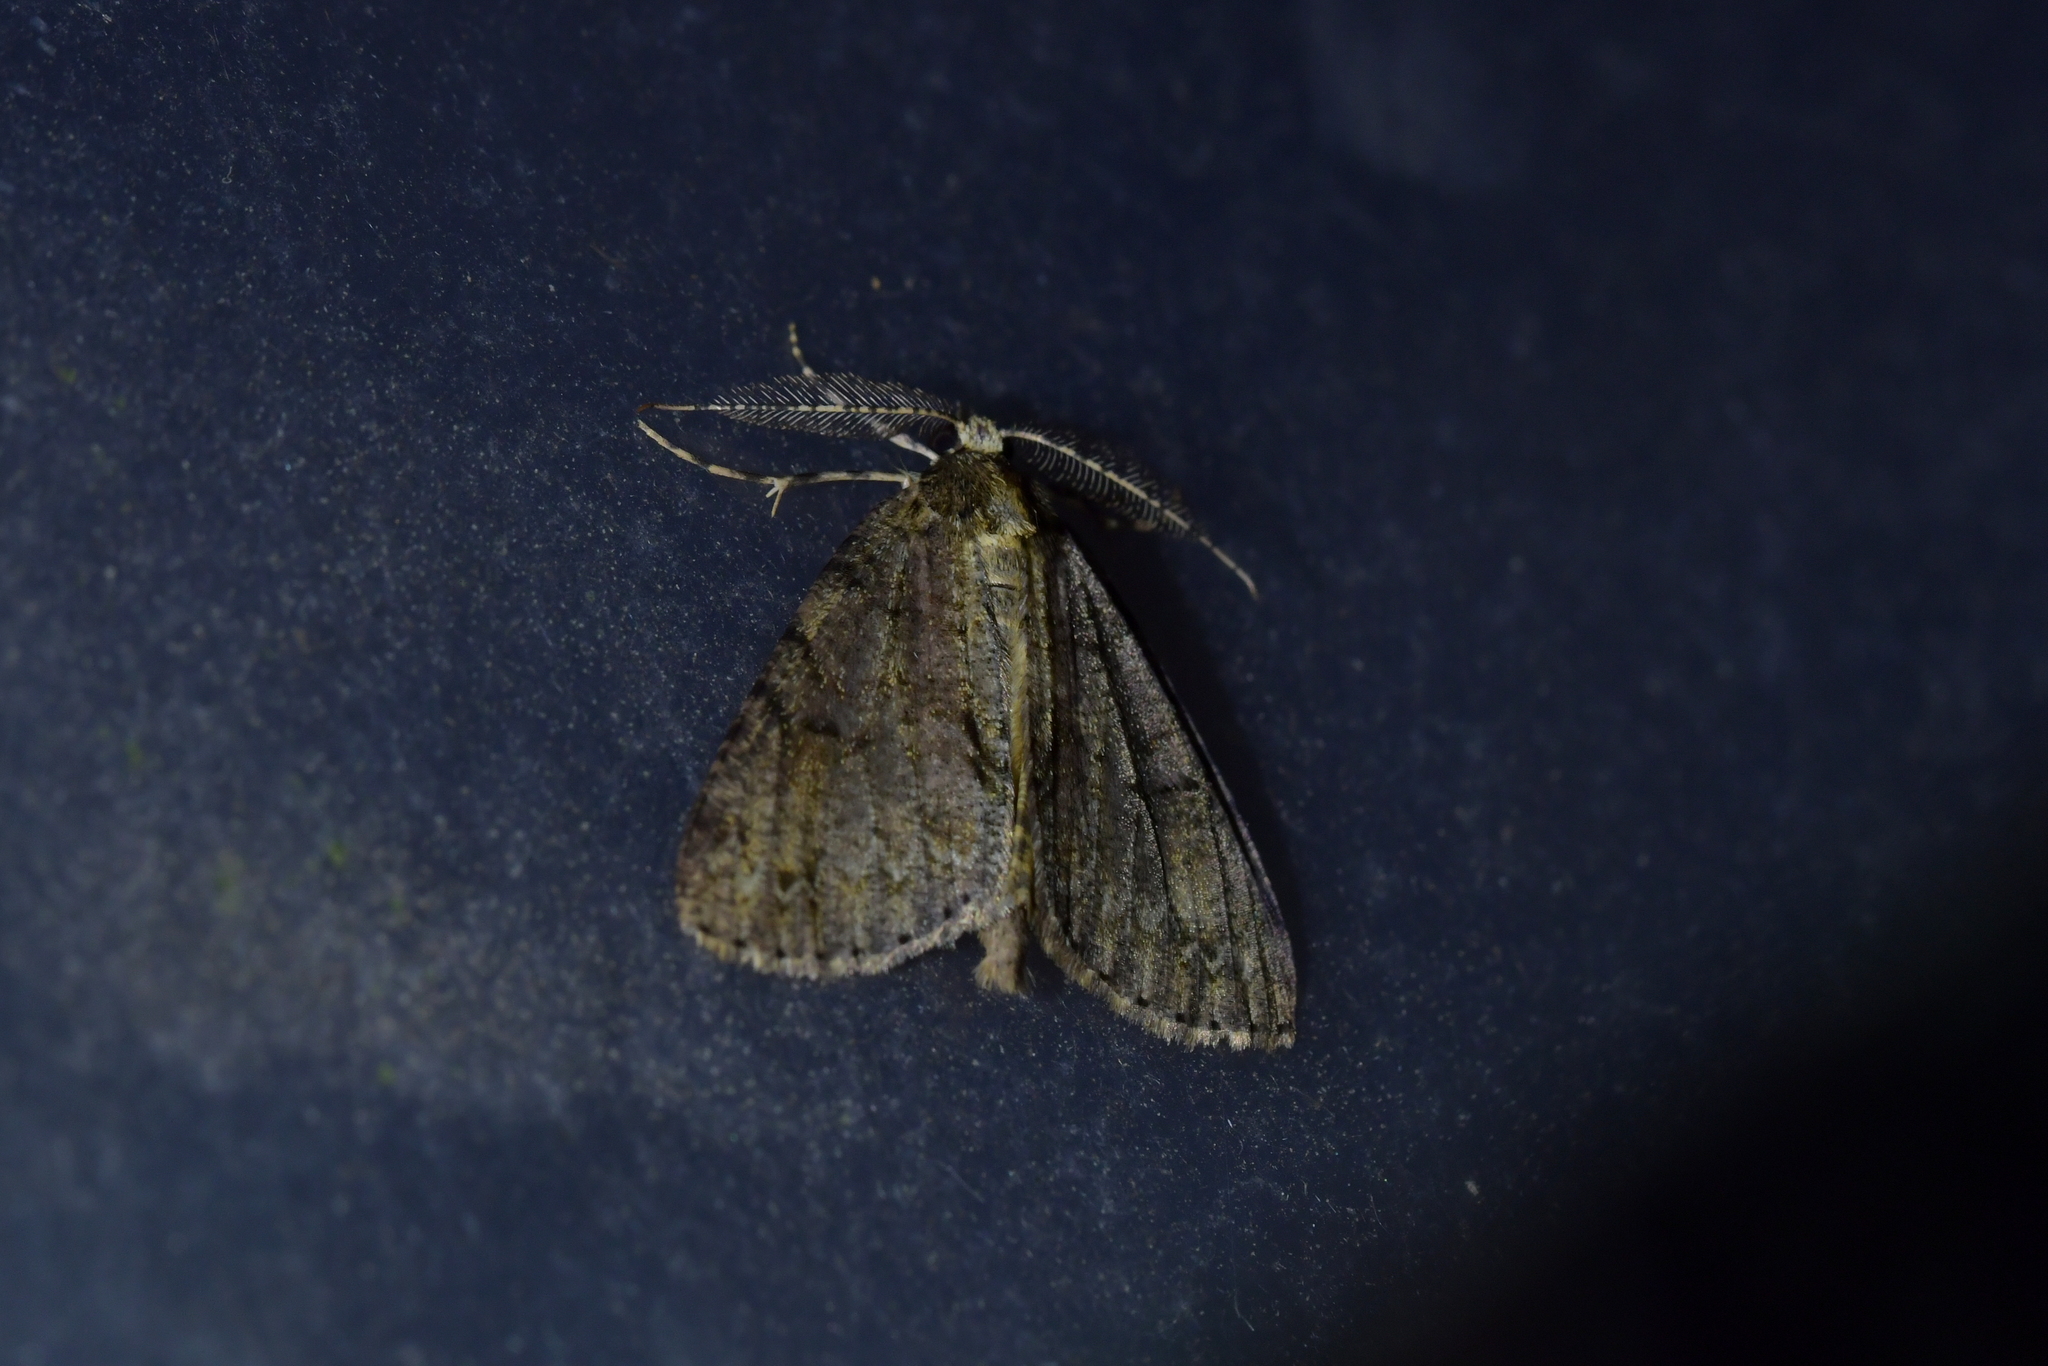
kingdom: Animalia
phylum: Arthropoda
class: Insecta
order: Lepidoptera
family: Geometridae
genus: Pseudocoremia
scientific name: Pseudocoremia suavis
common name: Common forest looper
